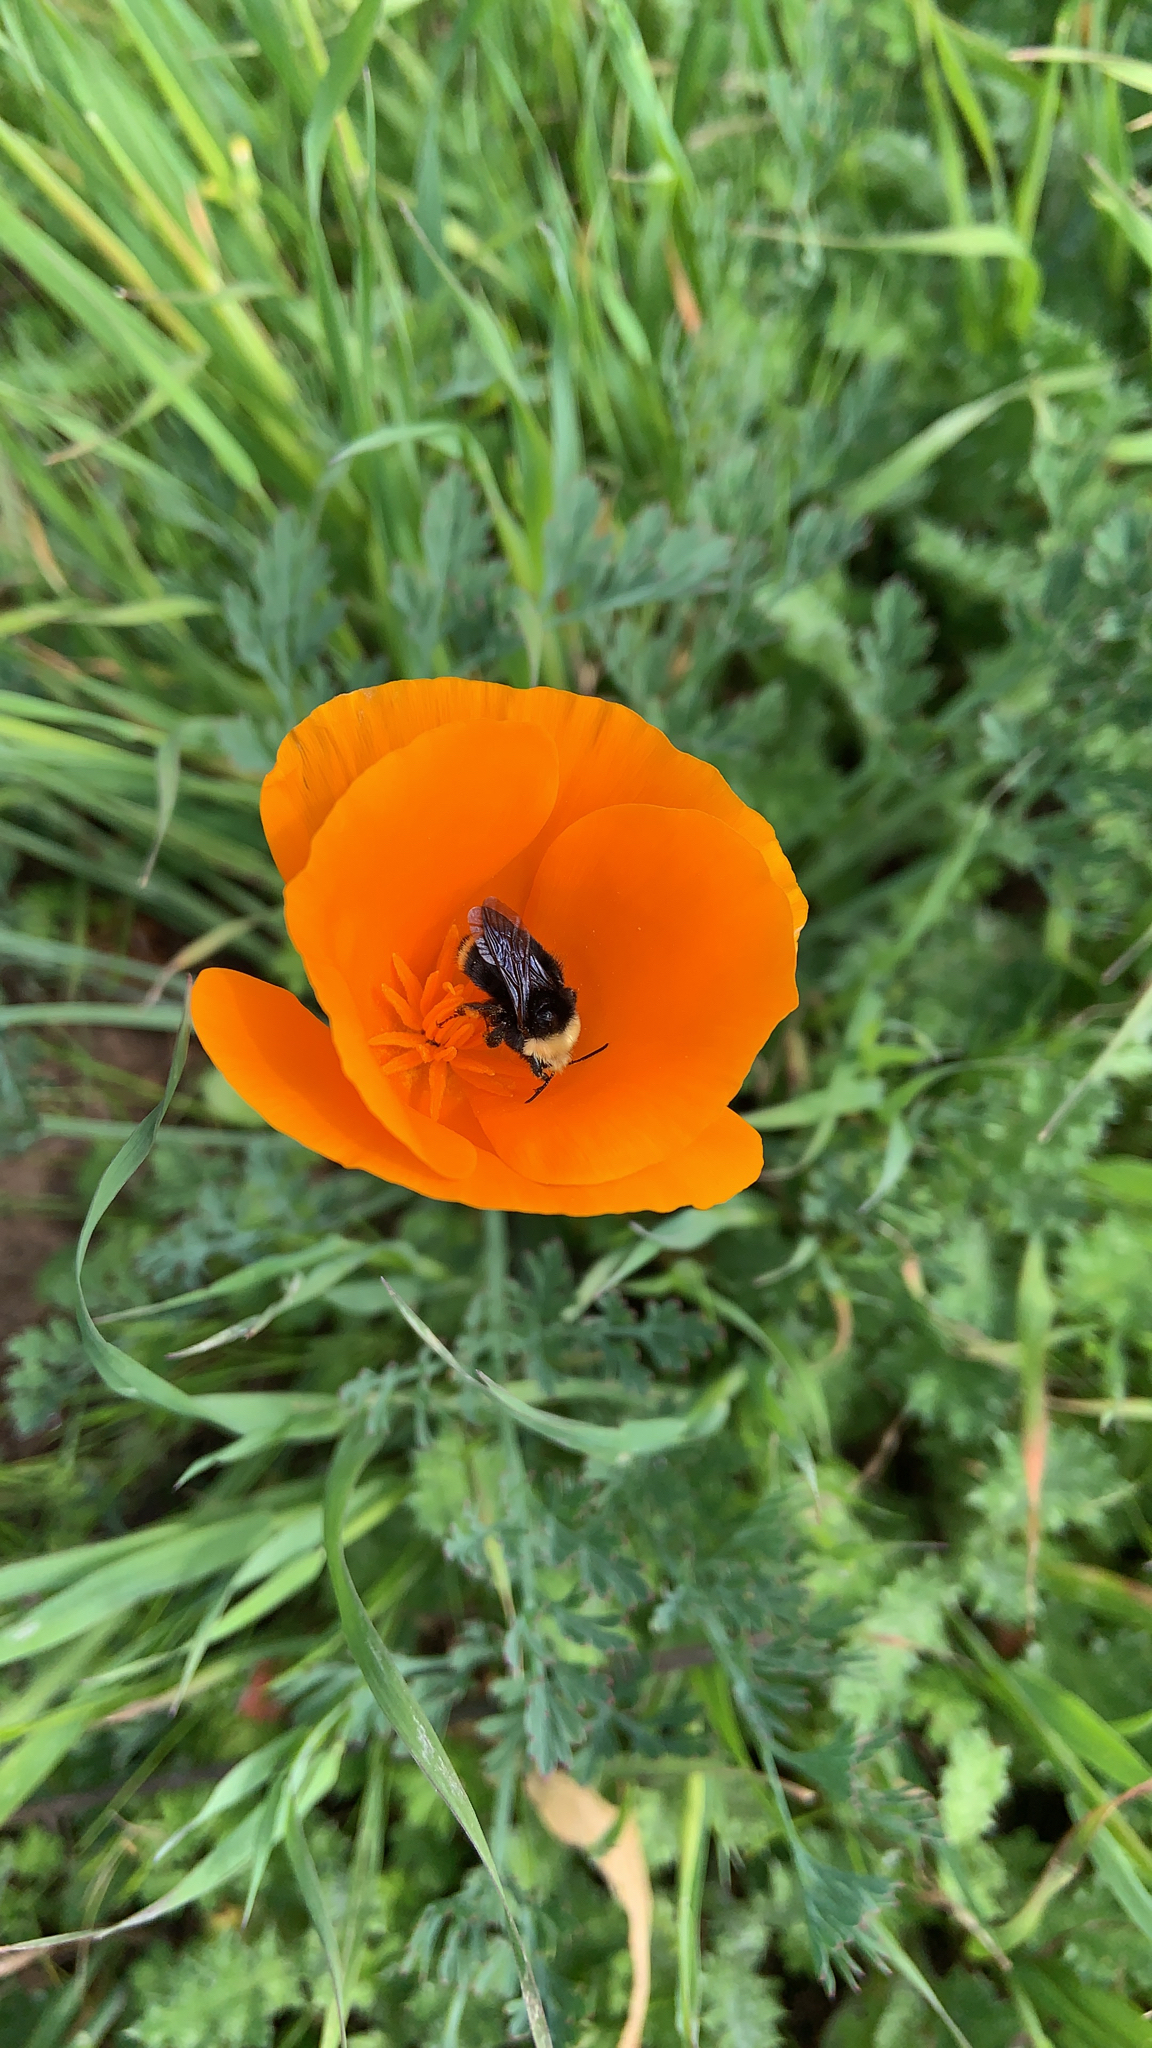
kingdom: Animalia
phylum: Arthropoda
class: Insecta
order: Hymenoptera
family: Apidae
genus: Bombus
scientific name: Bombus vosnesenskii
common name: Vosnesensky bumble bee
